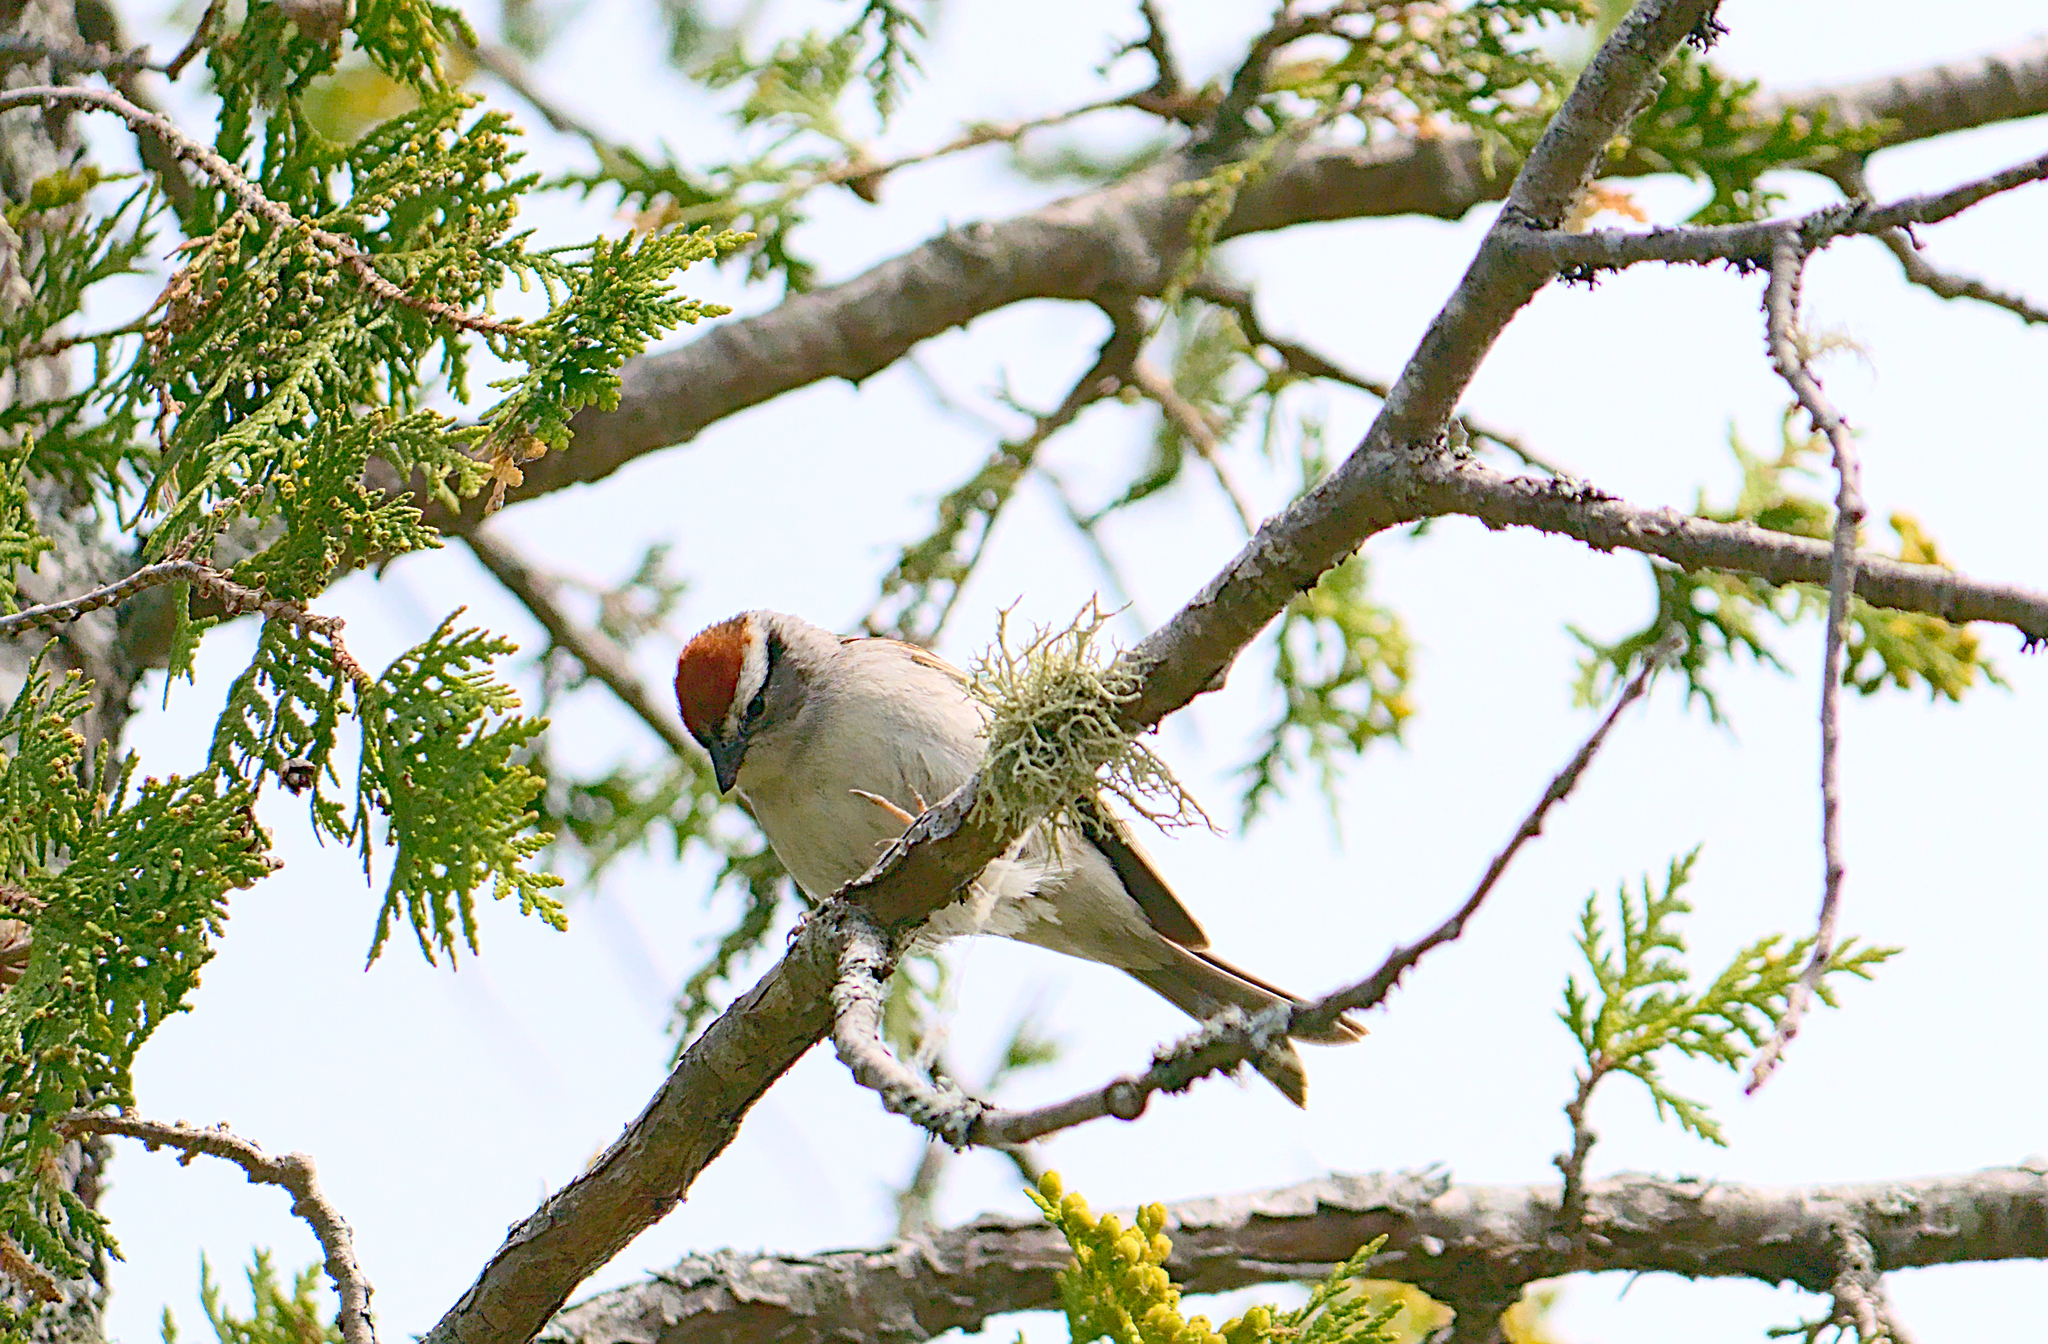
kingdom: Animalia
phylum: Chordata
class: Aves
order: Passeriformes
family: Passerellidae
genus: Spizella
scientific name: Spizella passerina
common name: Chipping sparrow
